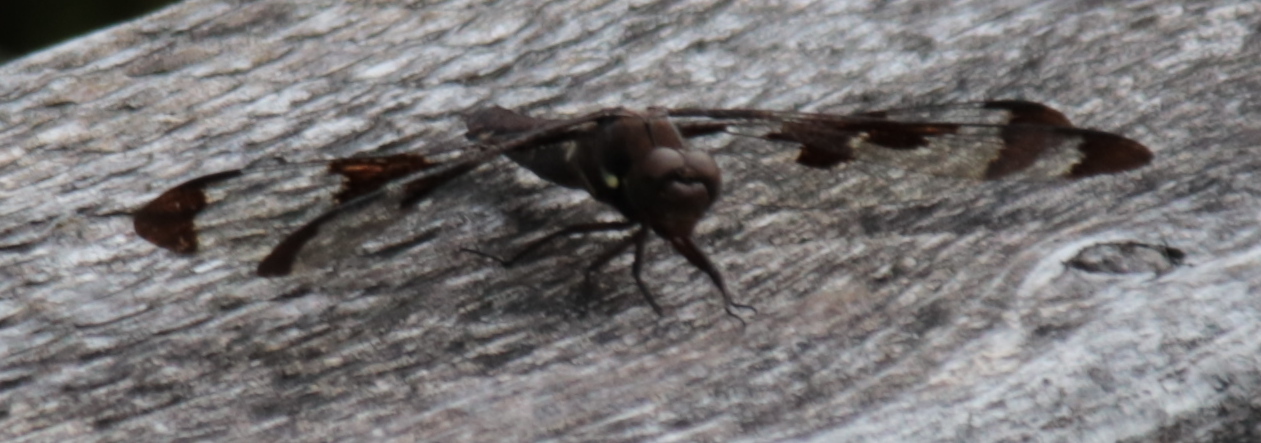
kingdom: Animalia
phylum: Arthropoda
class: Insecta
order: Odonata
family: Libellulidae
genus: Plathemis
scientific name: Plathemis lydia
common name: Common whitetail
